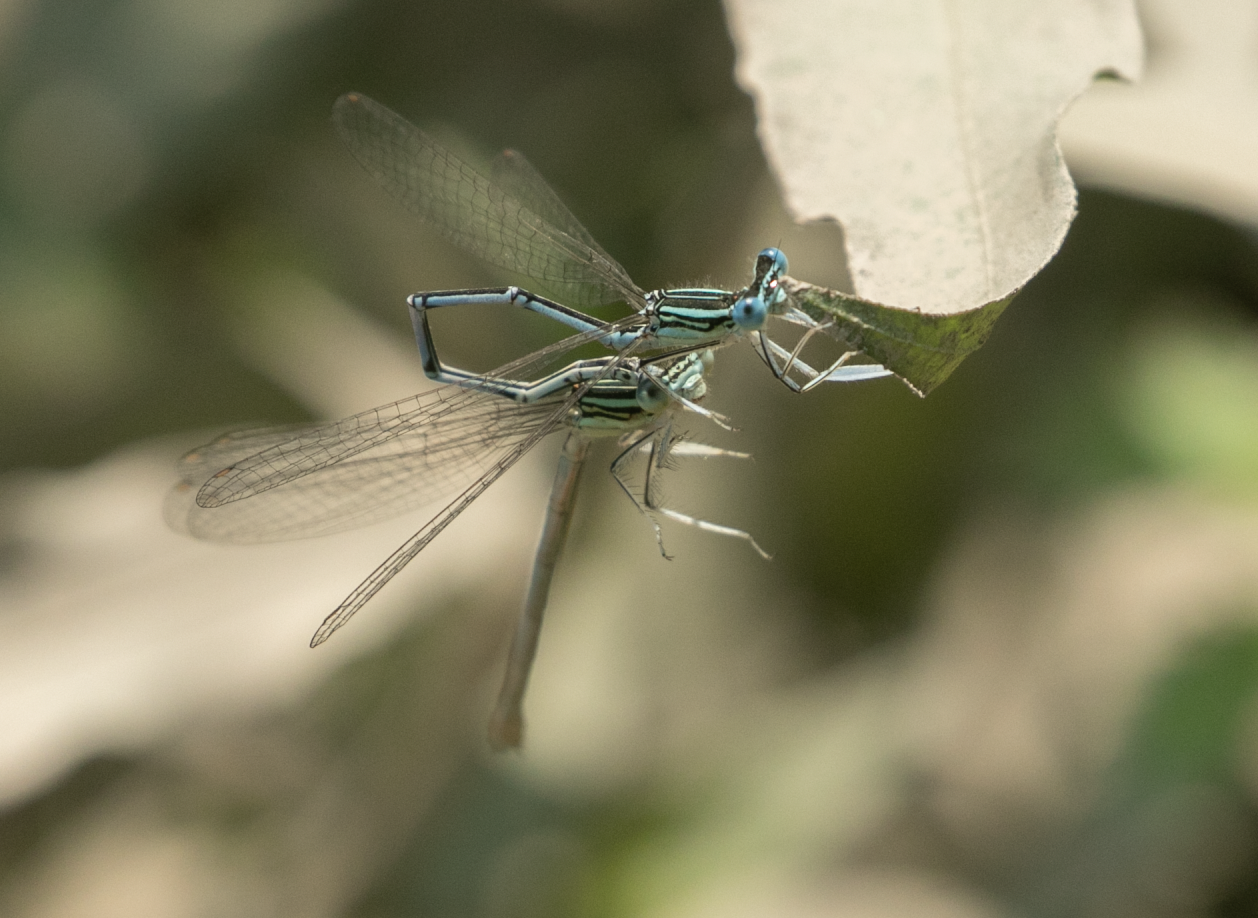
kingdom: Animalia
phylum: Arthropoda
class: Insecta
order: Odonata
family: Platycnemididae
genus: Platycnemis
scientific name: Platycnemis pennipes
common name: White-legged damselfly
